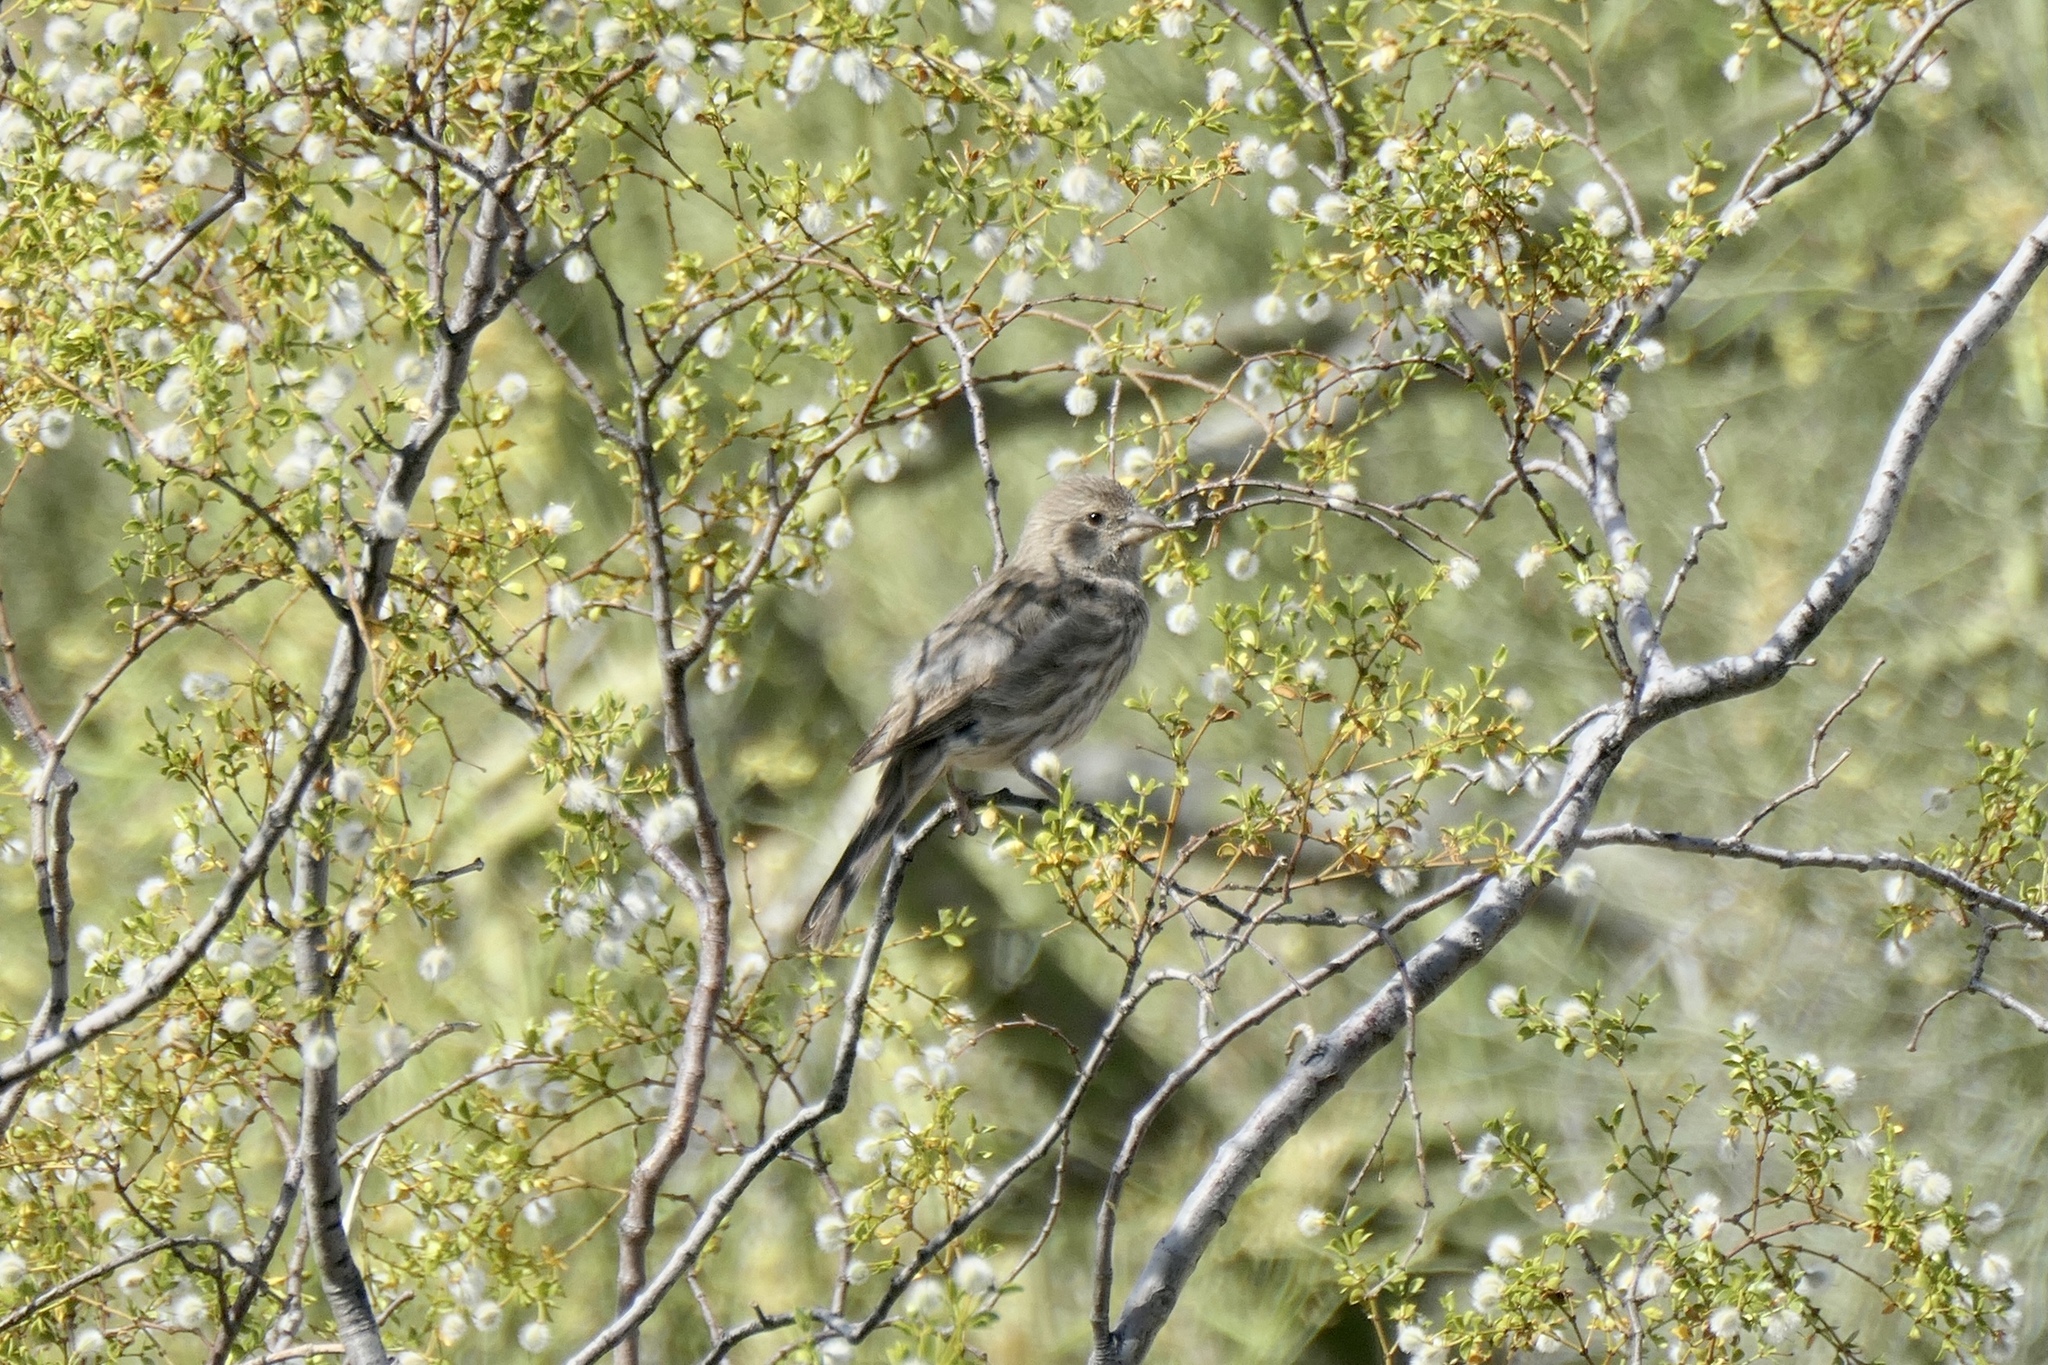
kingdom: Animalia
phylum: Chordata
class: Aves
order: Passeriformes
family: Fringillidae
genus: Haemorhous
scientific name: Haemorhous mexicanus
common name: House finch
